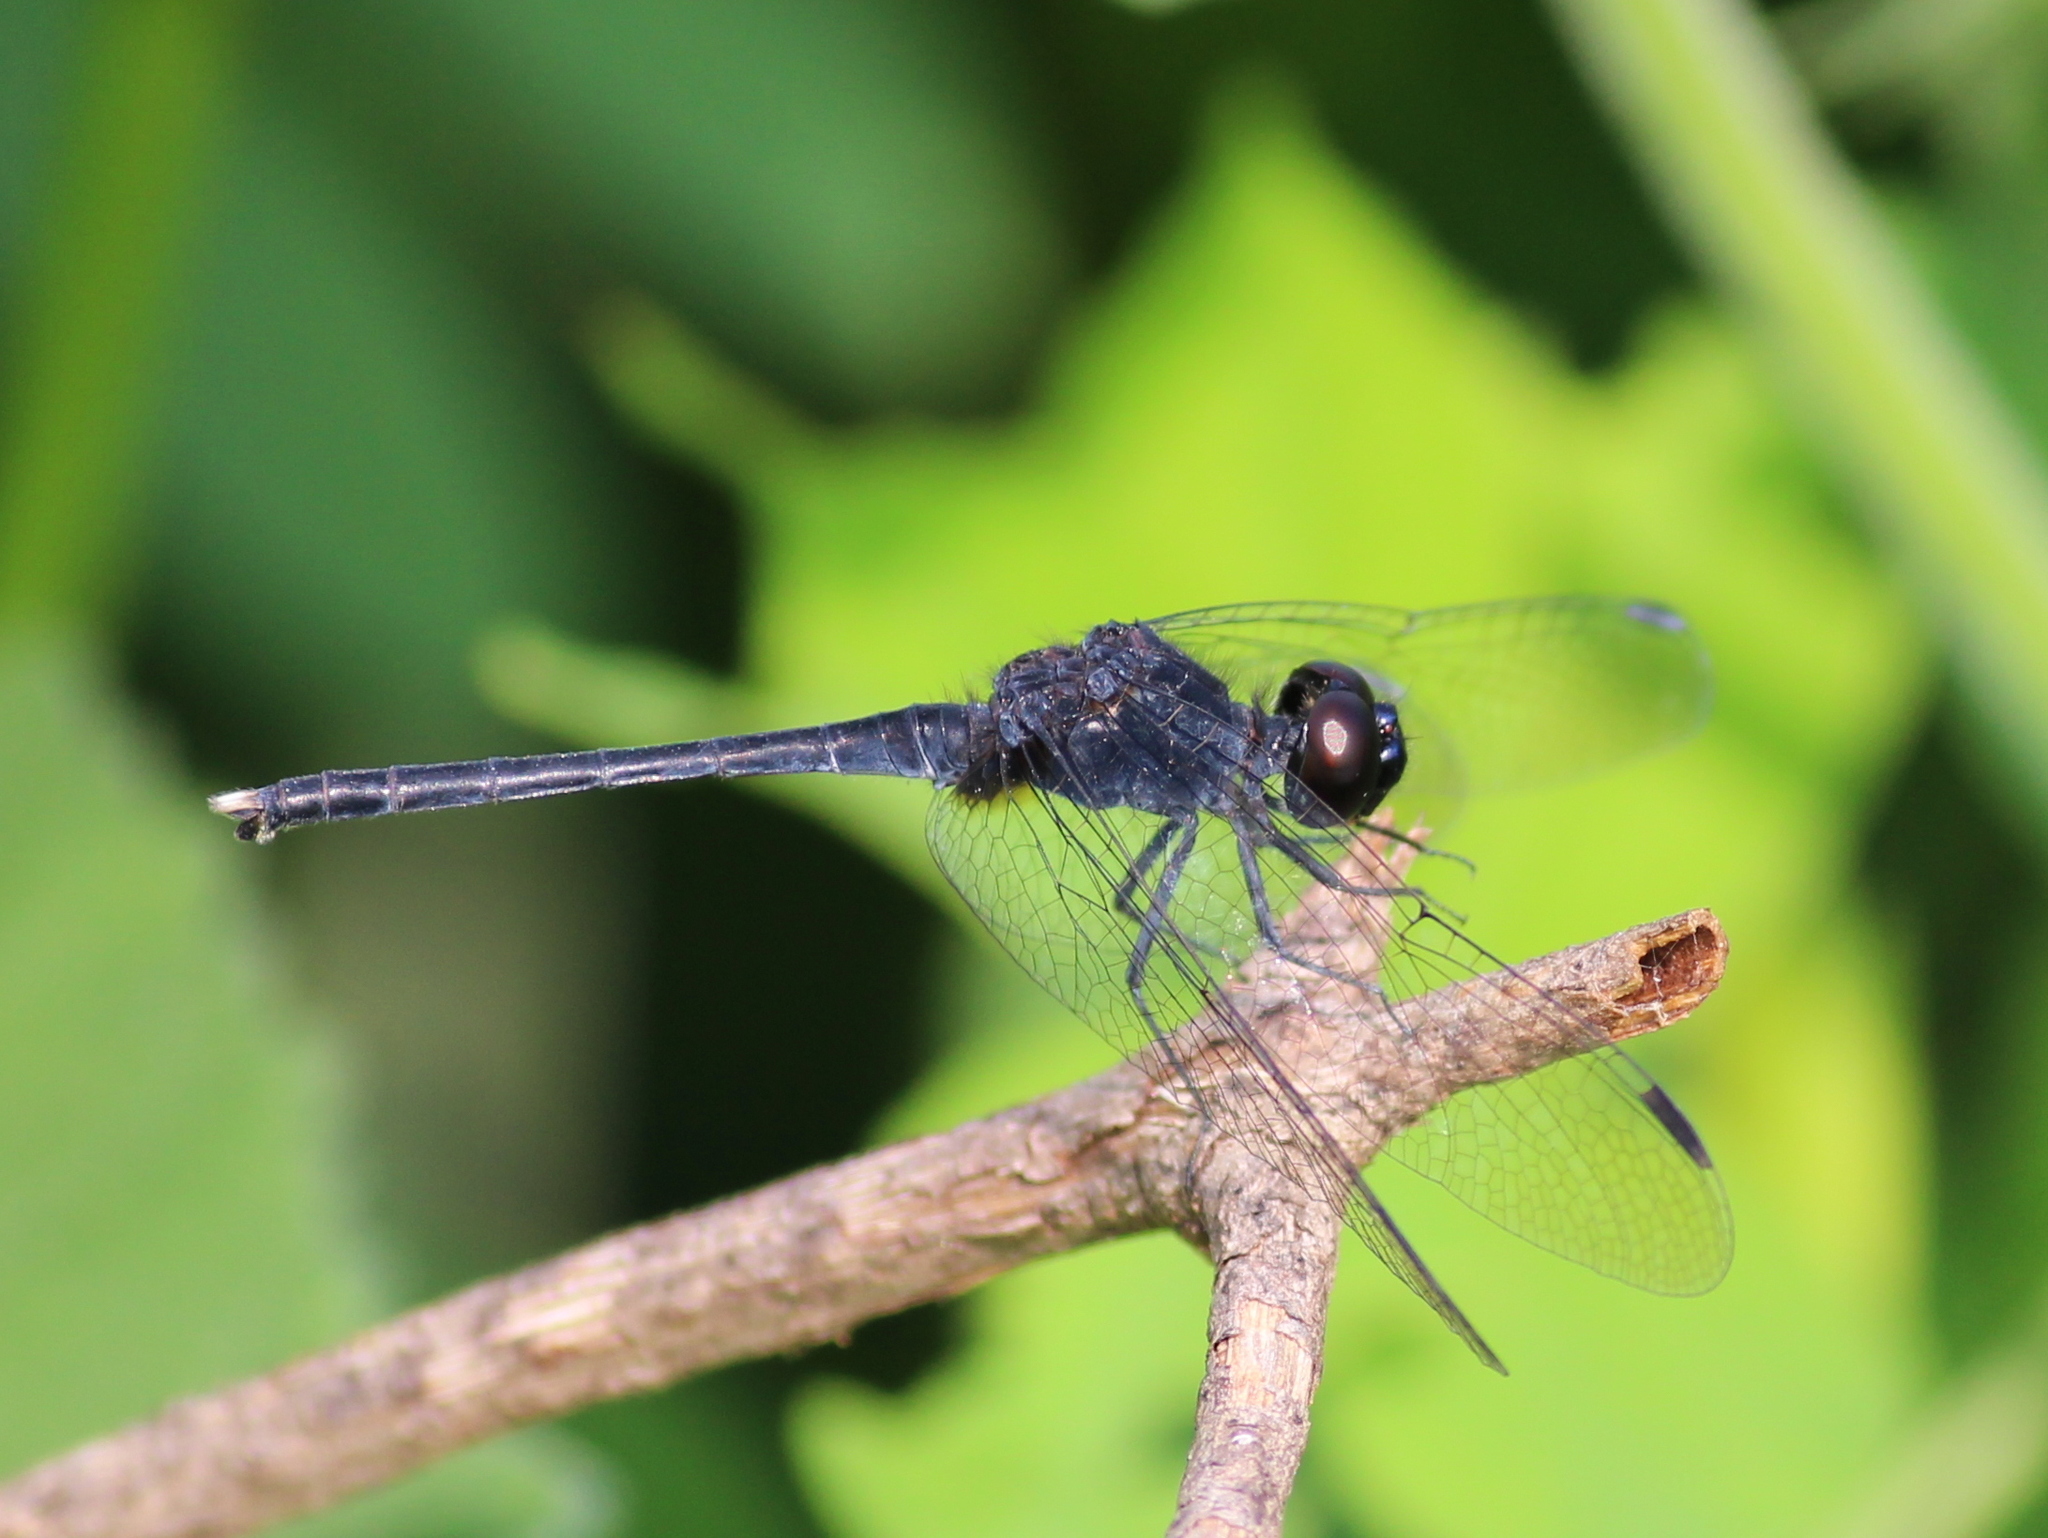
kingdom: Animalia
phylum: Arthropoda
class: Insecta
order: Odonata
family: Libellulidae
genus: Trithemis
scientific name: Trithemis festiva
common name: Indigo dropwing
